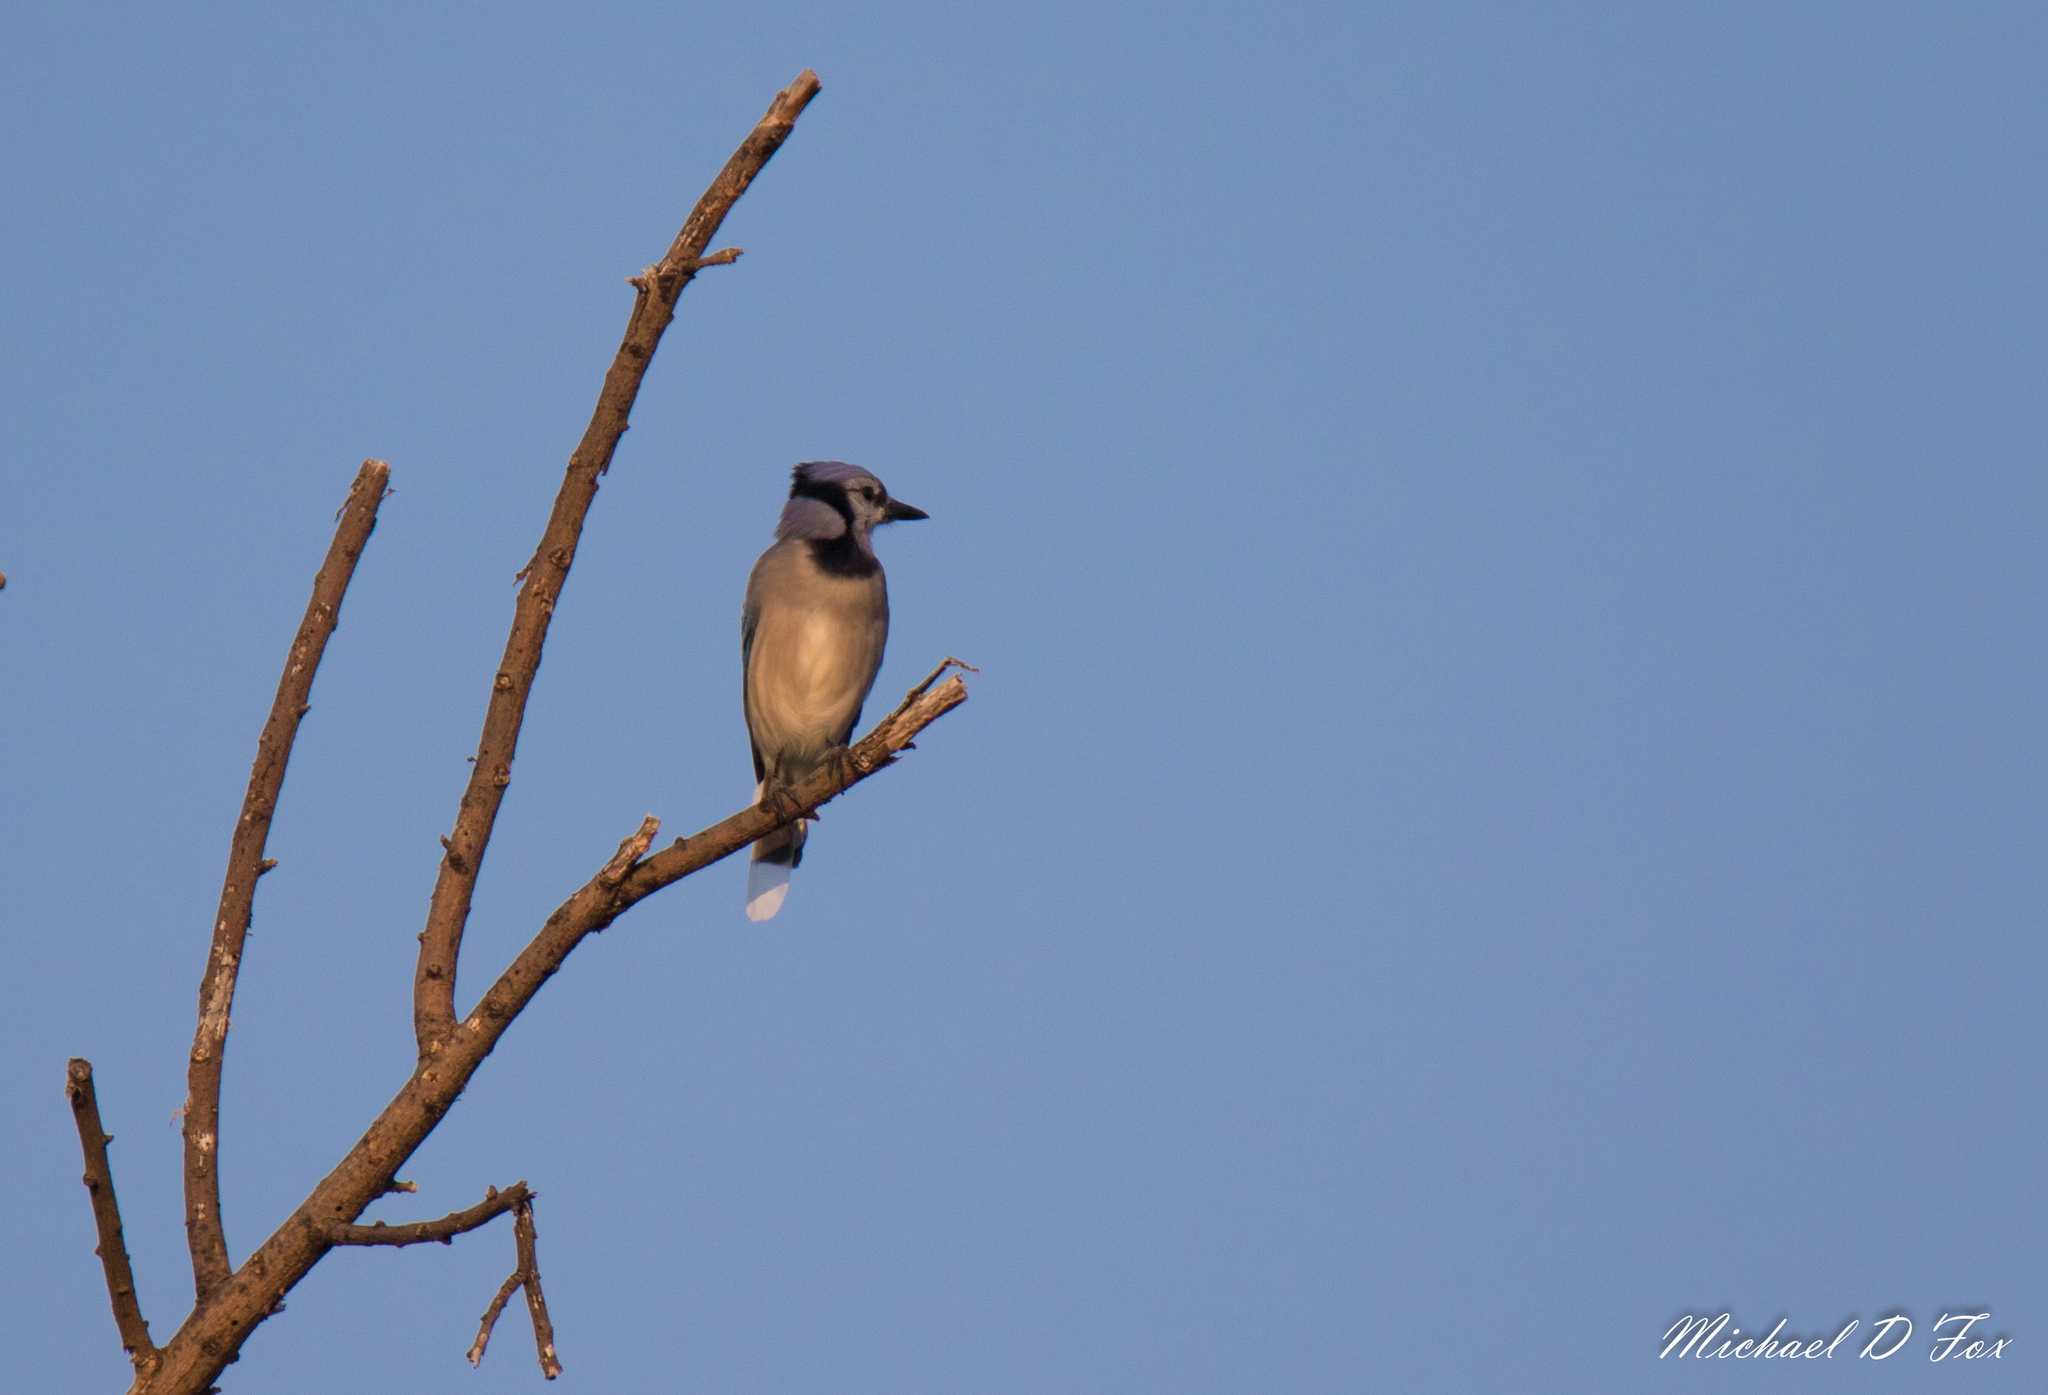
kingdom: Animalia
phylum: Chordata
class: Aves
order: Passeriformes
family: Corvidae
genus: Cyanocitta
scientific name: Cyanocitta cristata
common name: Blue jay
